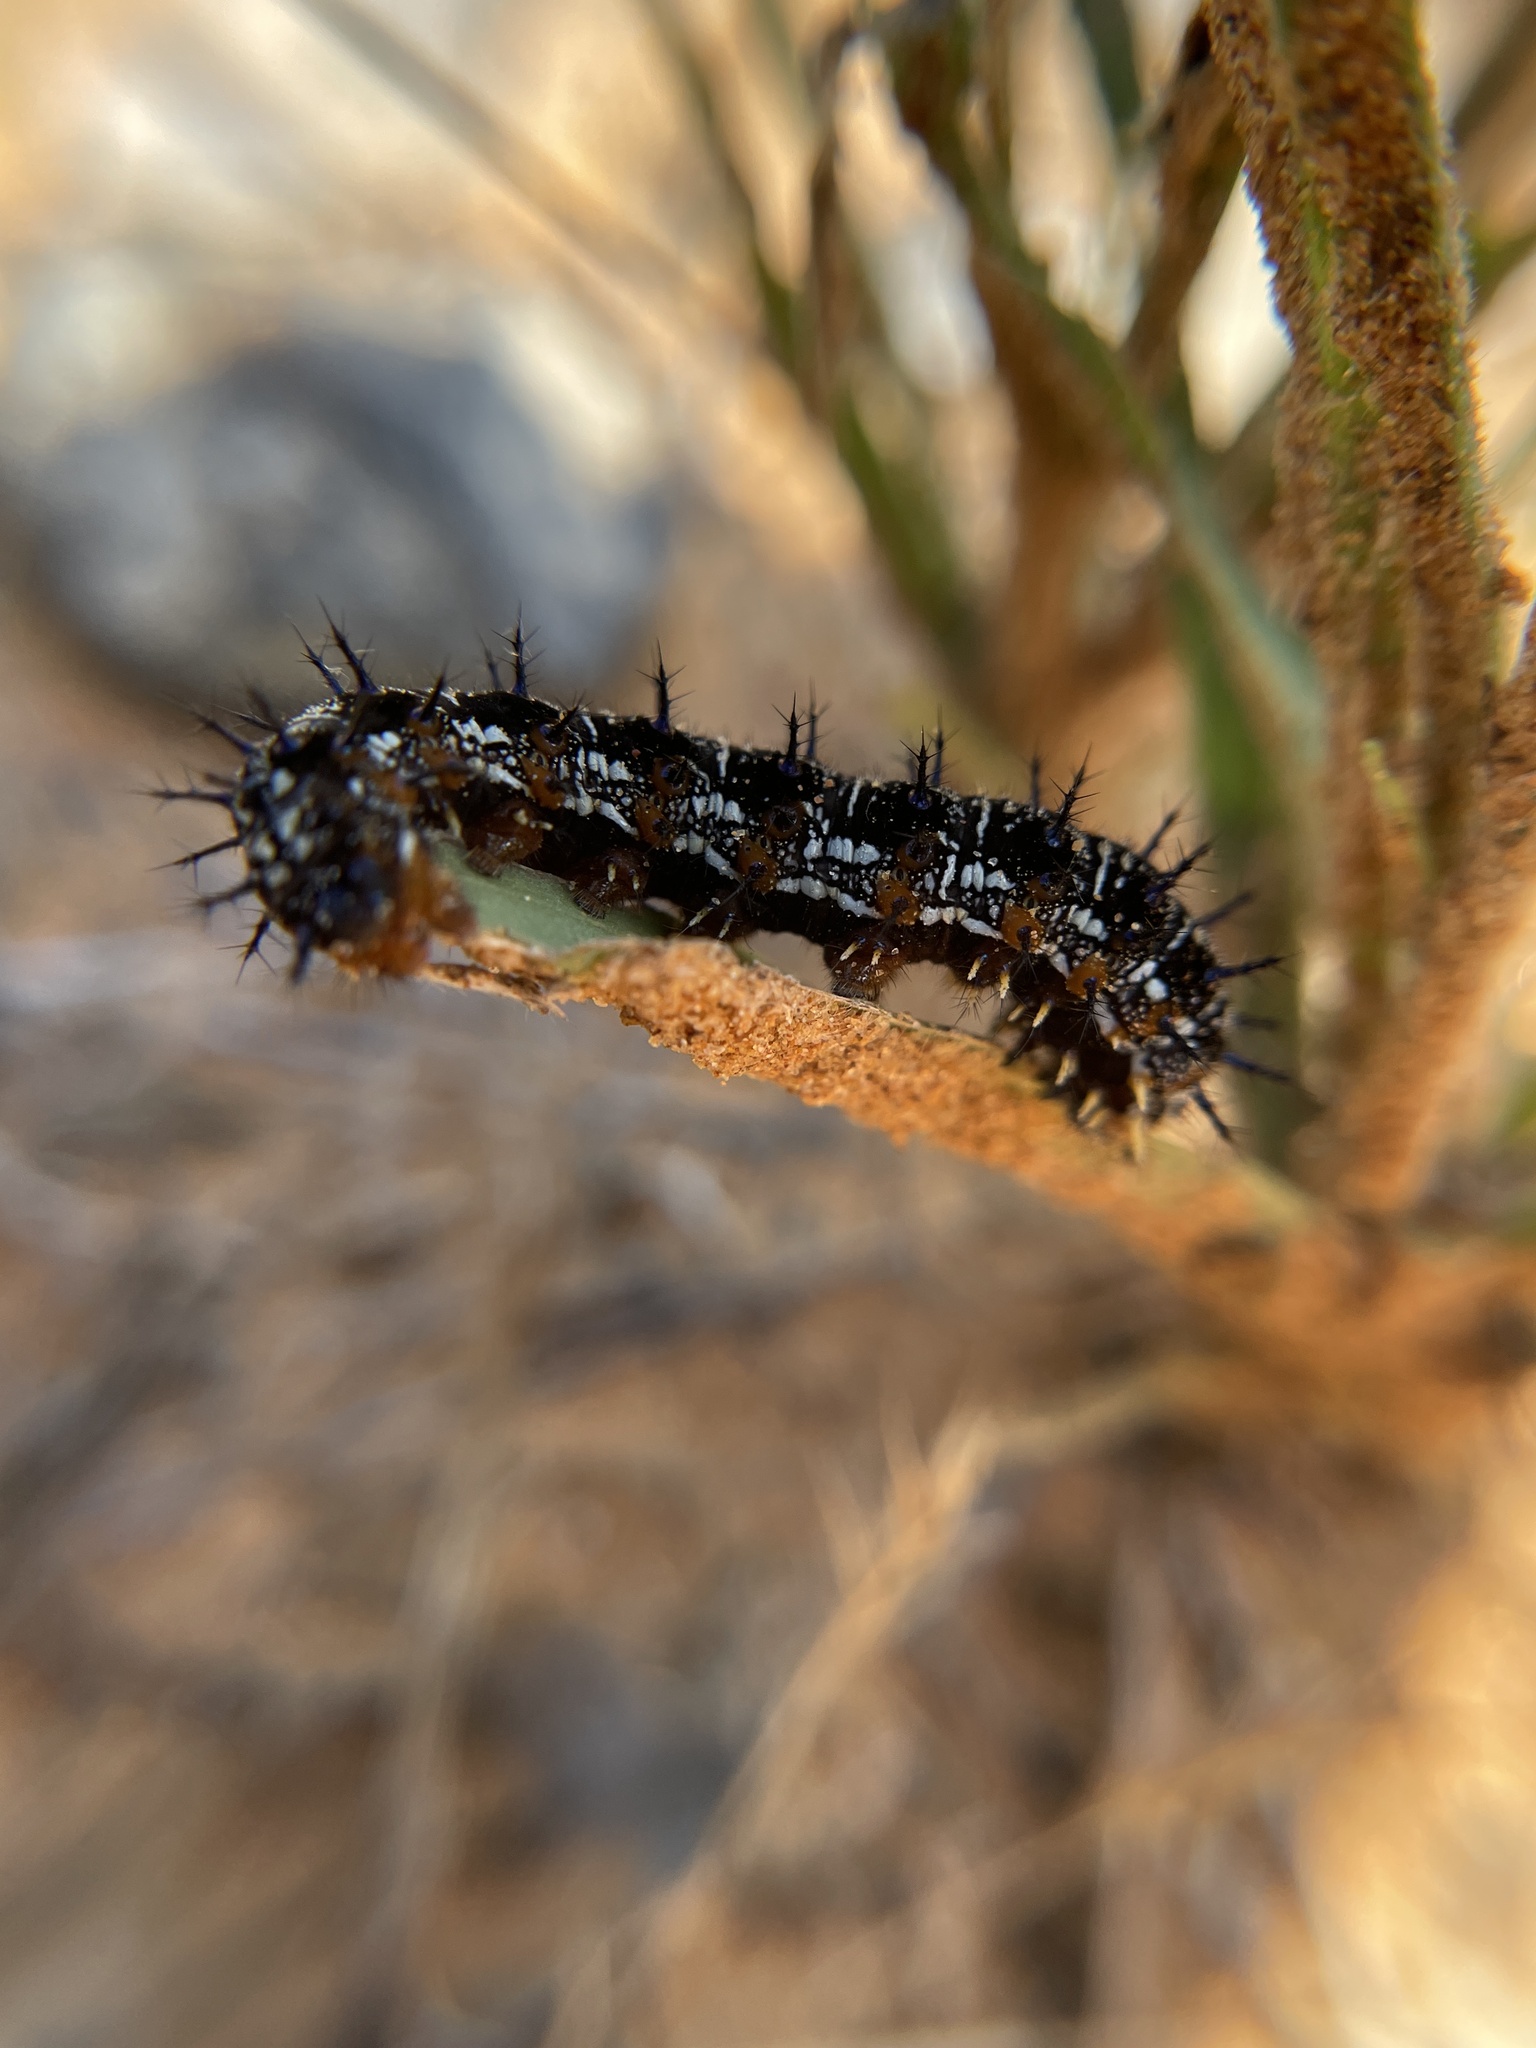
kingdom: Animalia
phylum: Arthropoda
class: Insecta
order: Lepidoptera
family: Nymphalidae
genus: Junonia
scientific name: Junonia coenia
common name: Common buckeye
